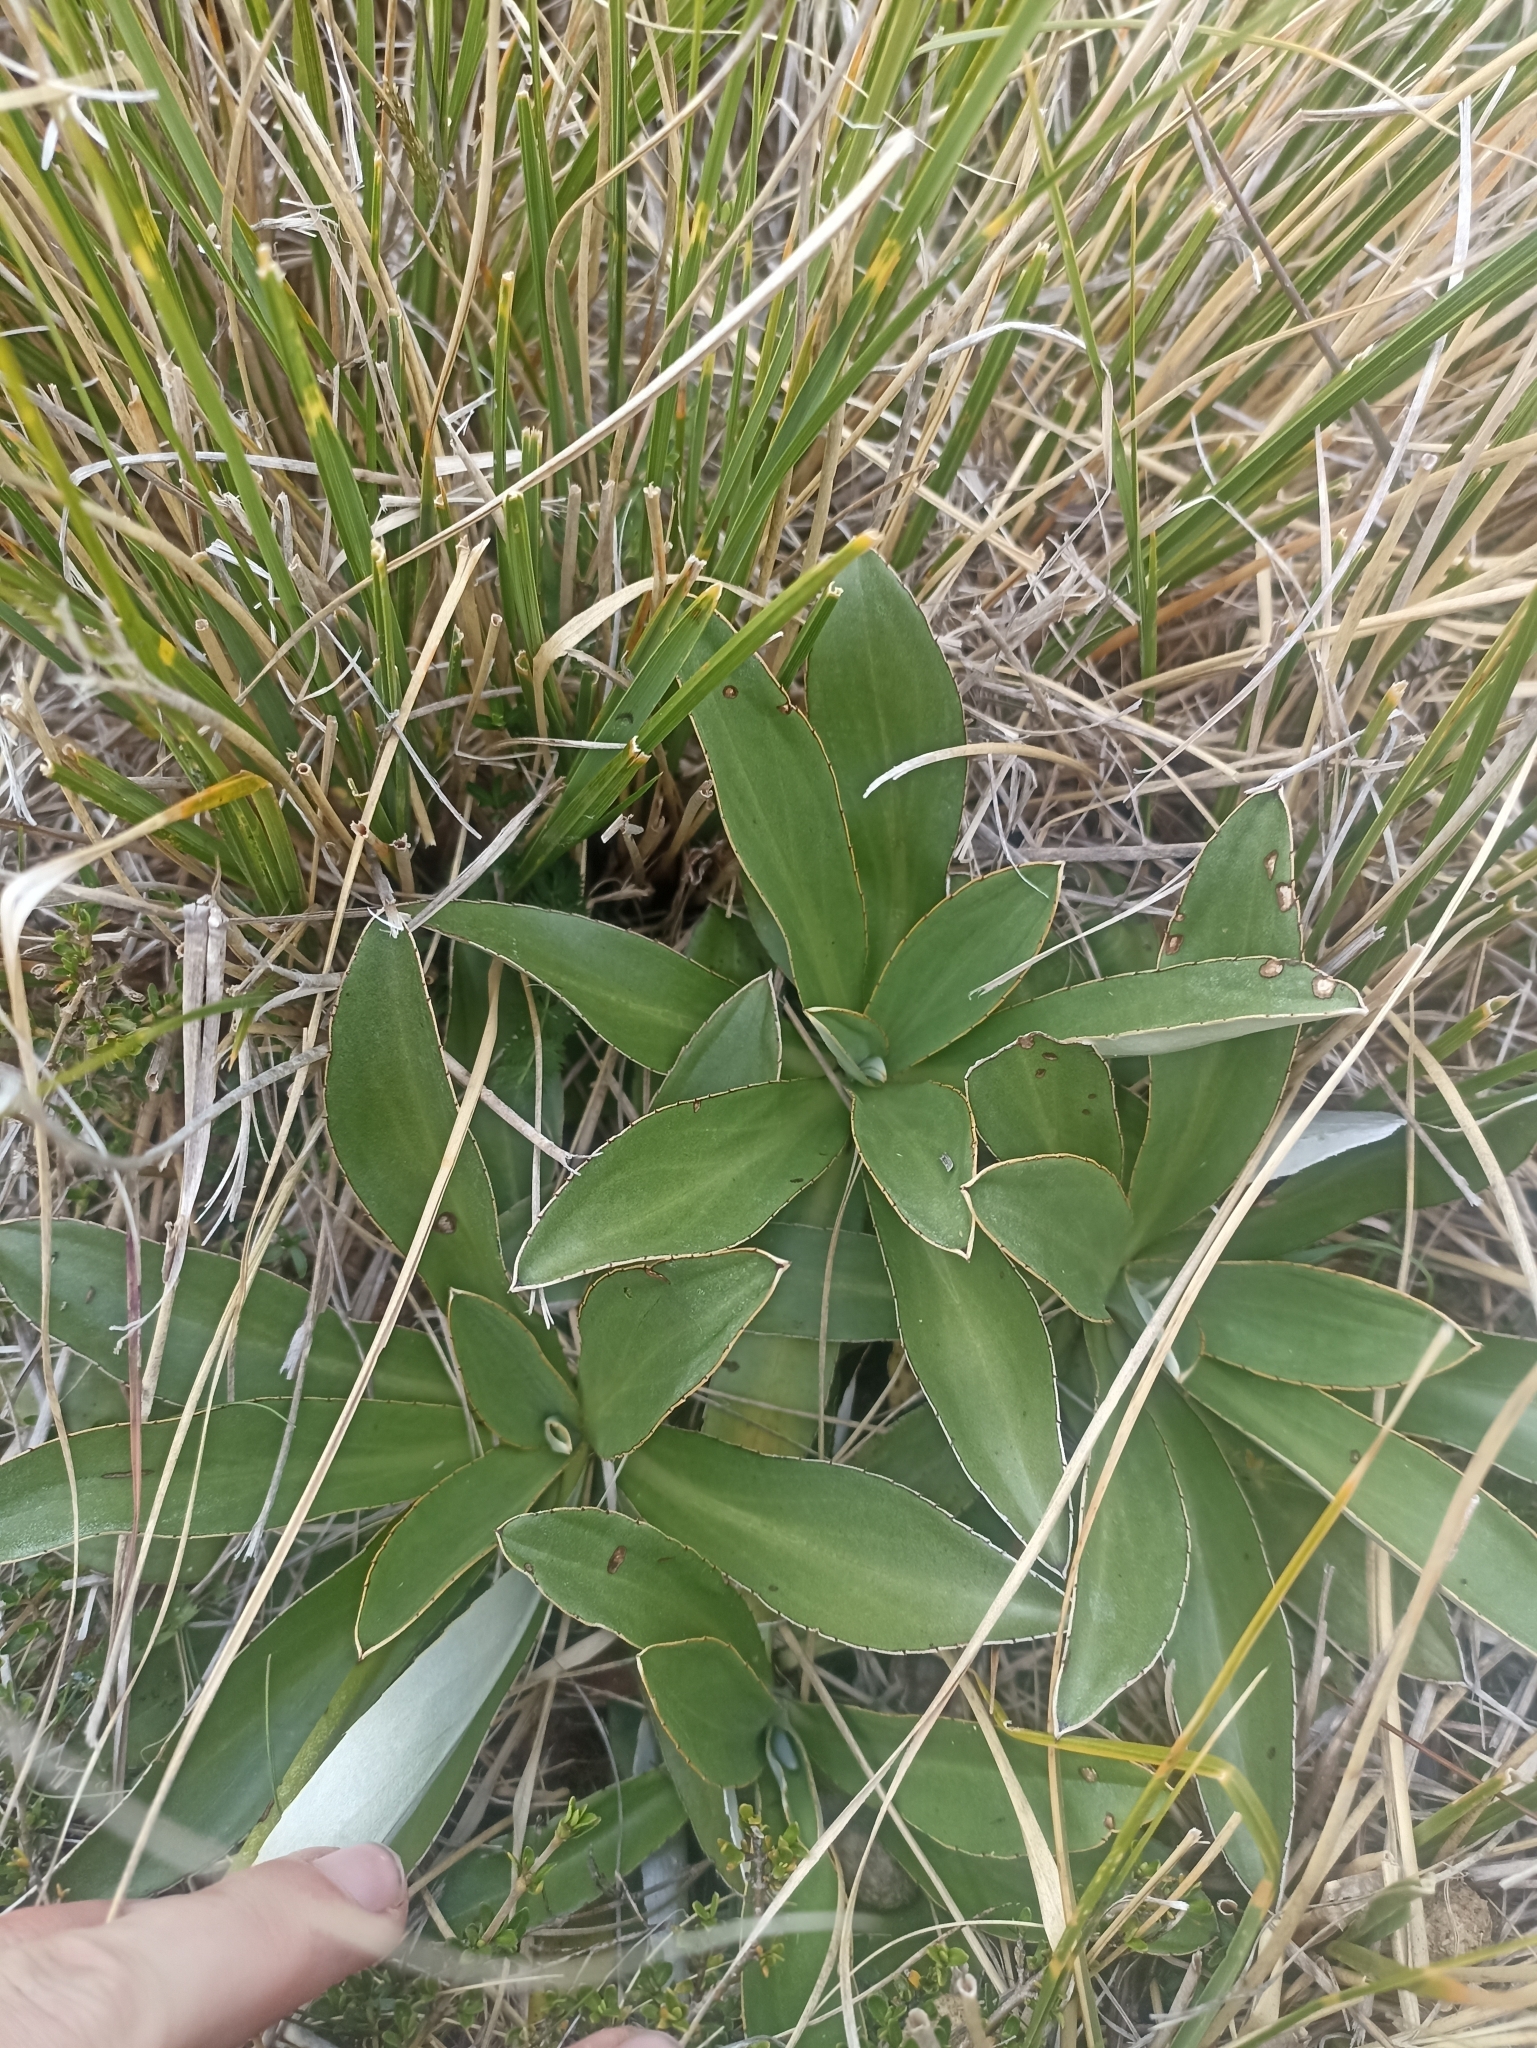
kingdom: Plantae
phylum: Tracheophyta
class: Magnoliopsida
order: Asterales
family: Asteraceae
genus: Celmisia
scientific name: Celmisia dallii
